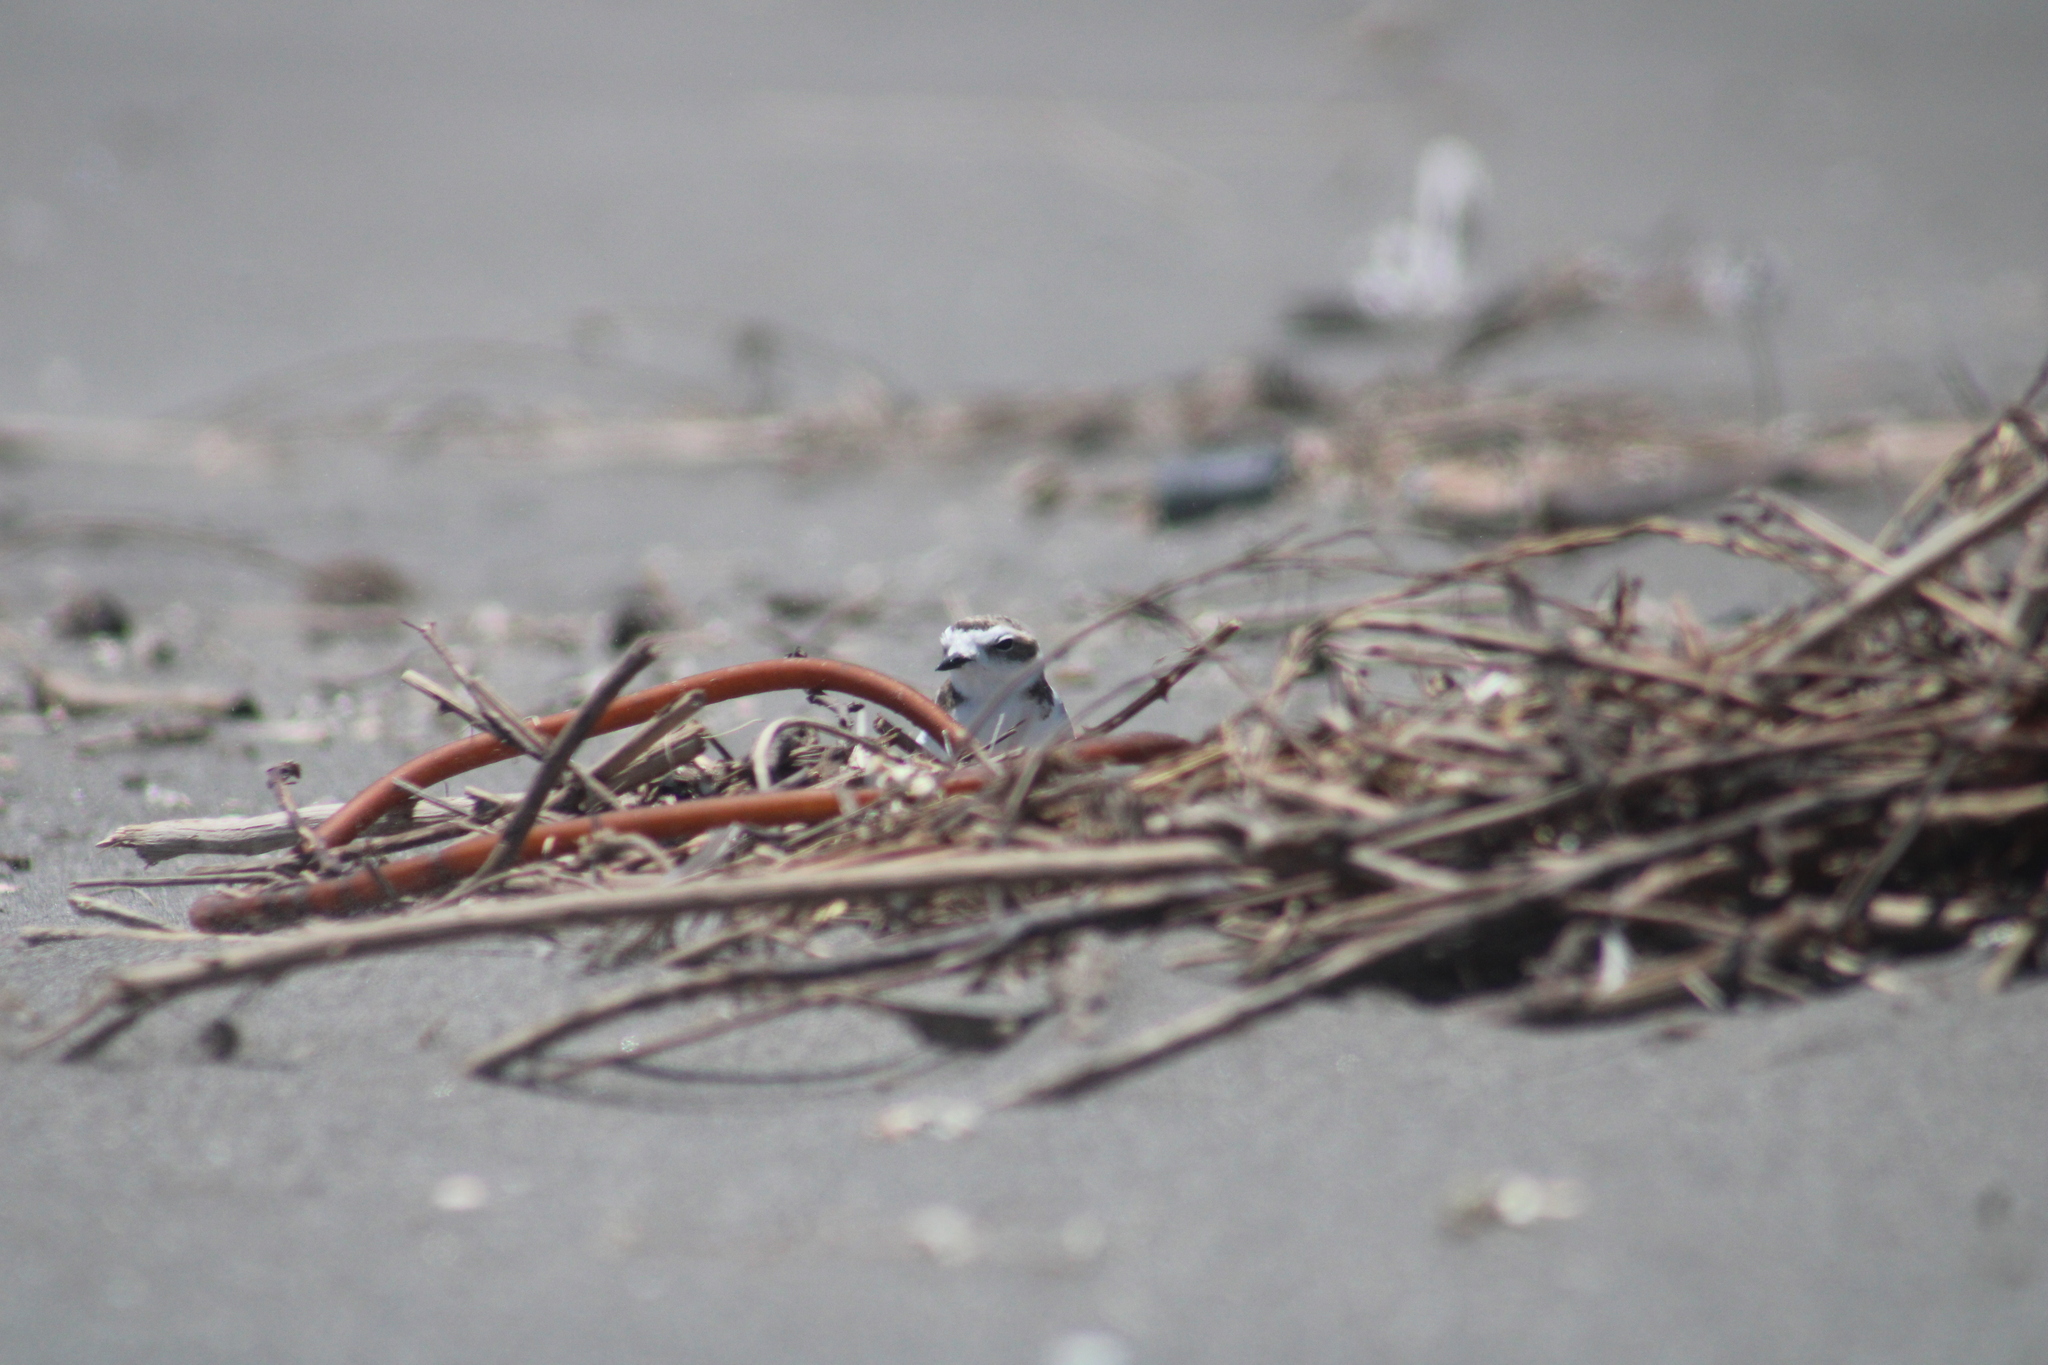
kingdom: Animalia
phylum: Chordata
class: Aves
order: Charadriiformes
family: Charadriidae
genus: Anarhynchus
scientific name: Anarhynchus
